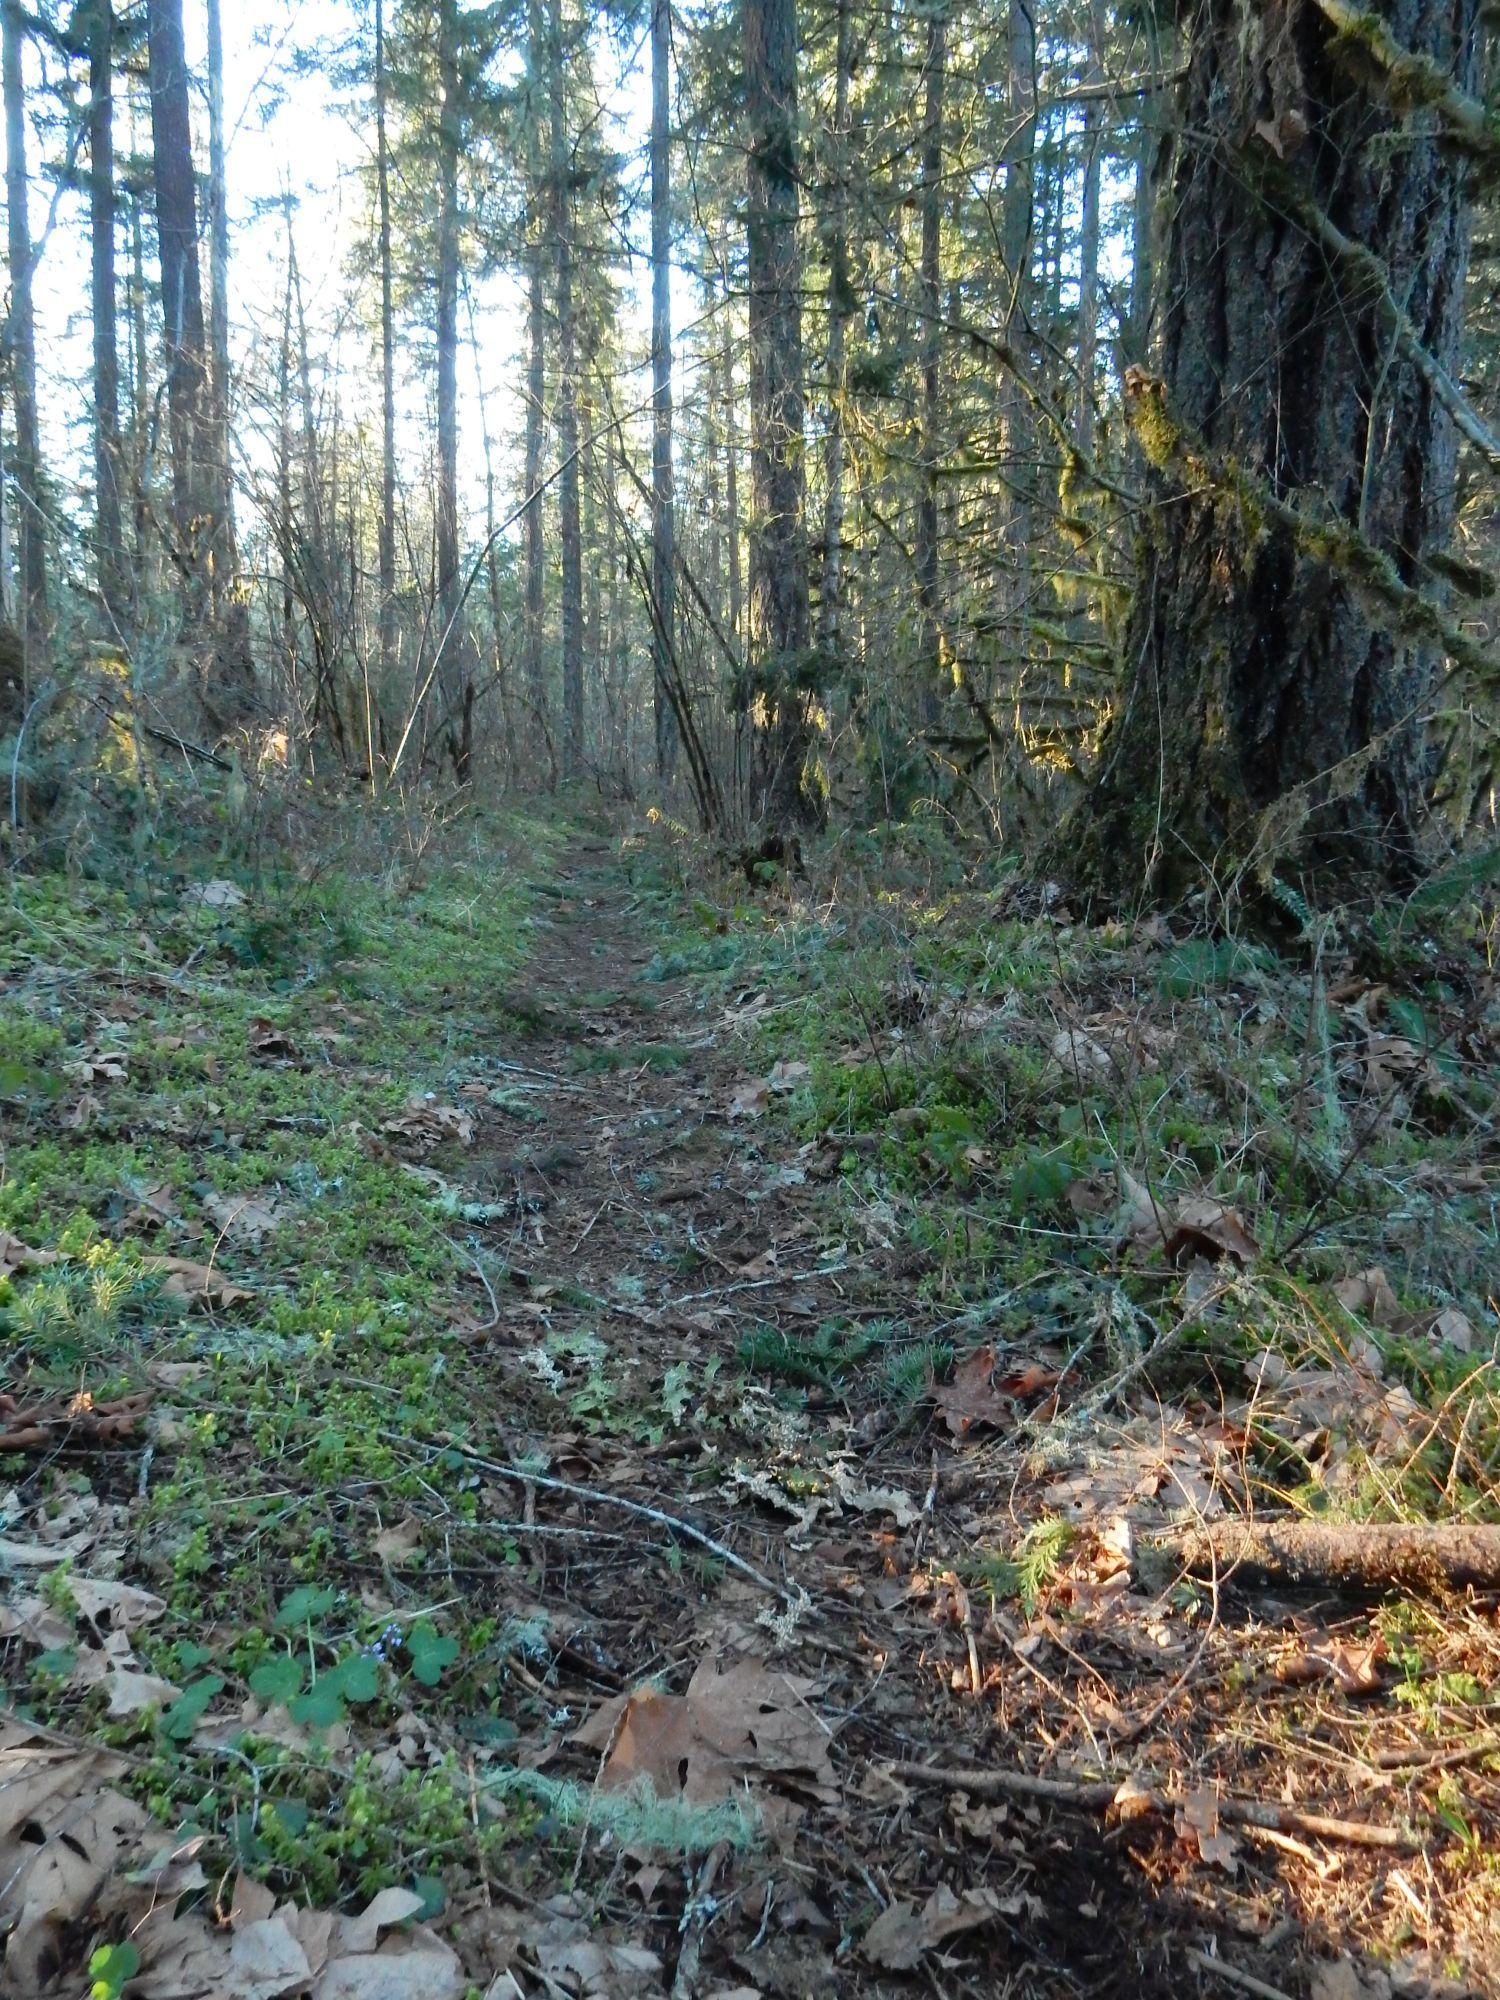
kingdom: Plantae
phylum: Tracheophyta
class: Magnoliopsida
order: Lamiales
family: Plantaginaceae
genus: Synthyris
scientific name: Synthyris reniformis
